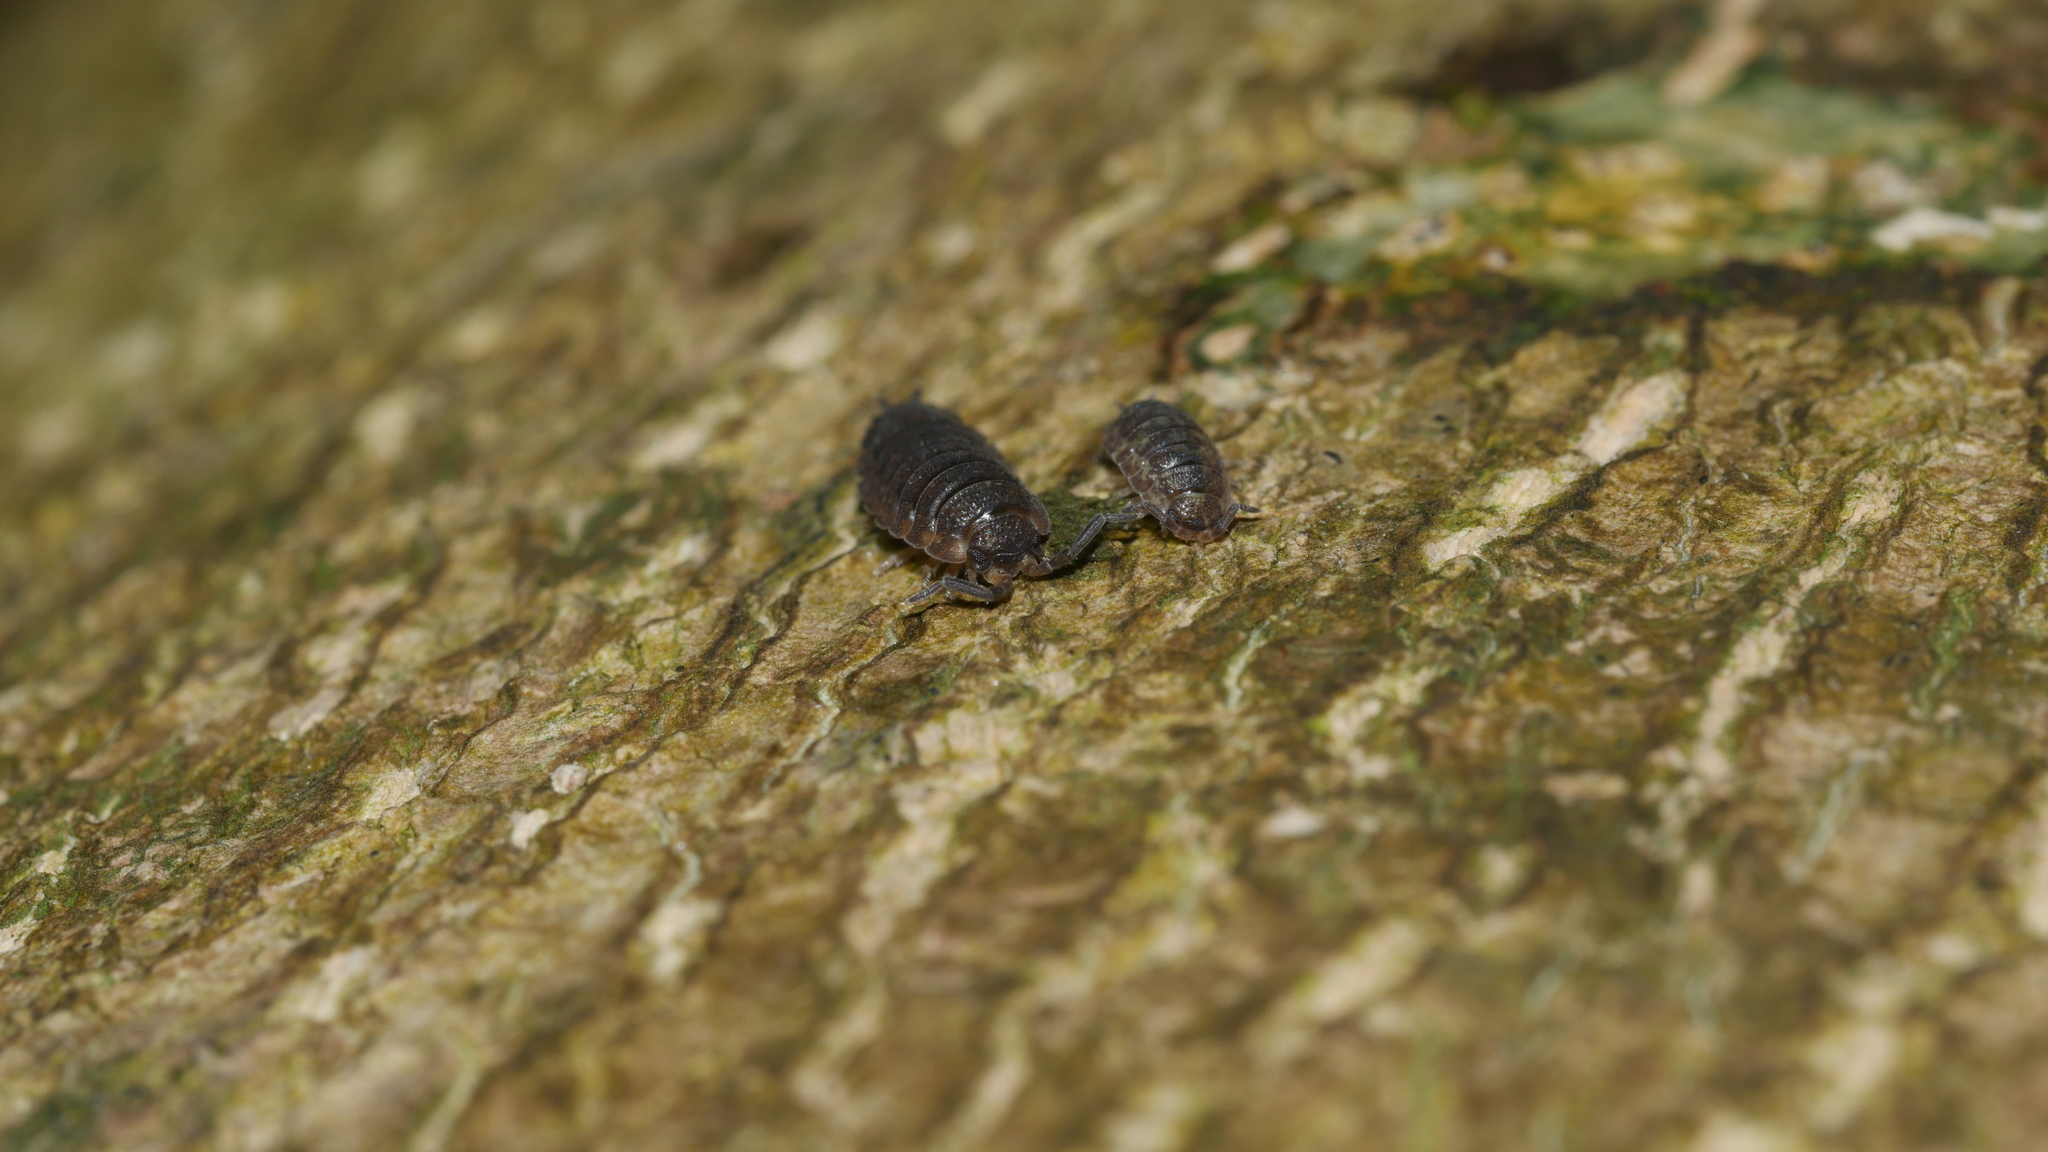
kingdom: Animalia
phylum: Arthropoda
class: Malacostraca
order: Isopoda
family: Porcellionidae
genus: Porcellio
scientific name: Porcellio scaber
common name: Common rough woodlouse
